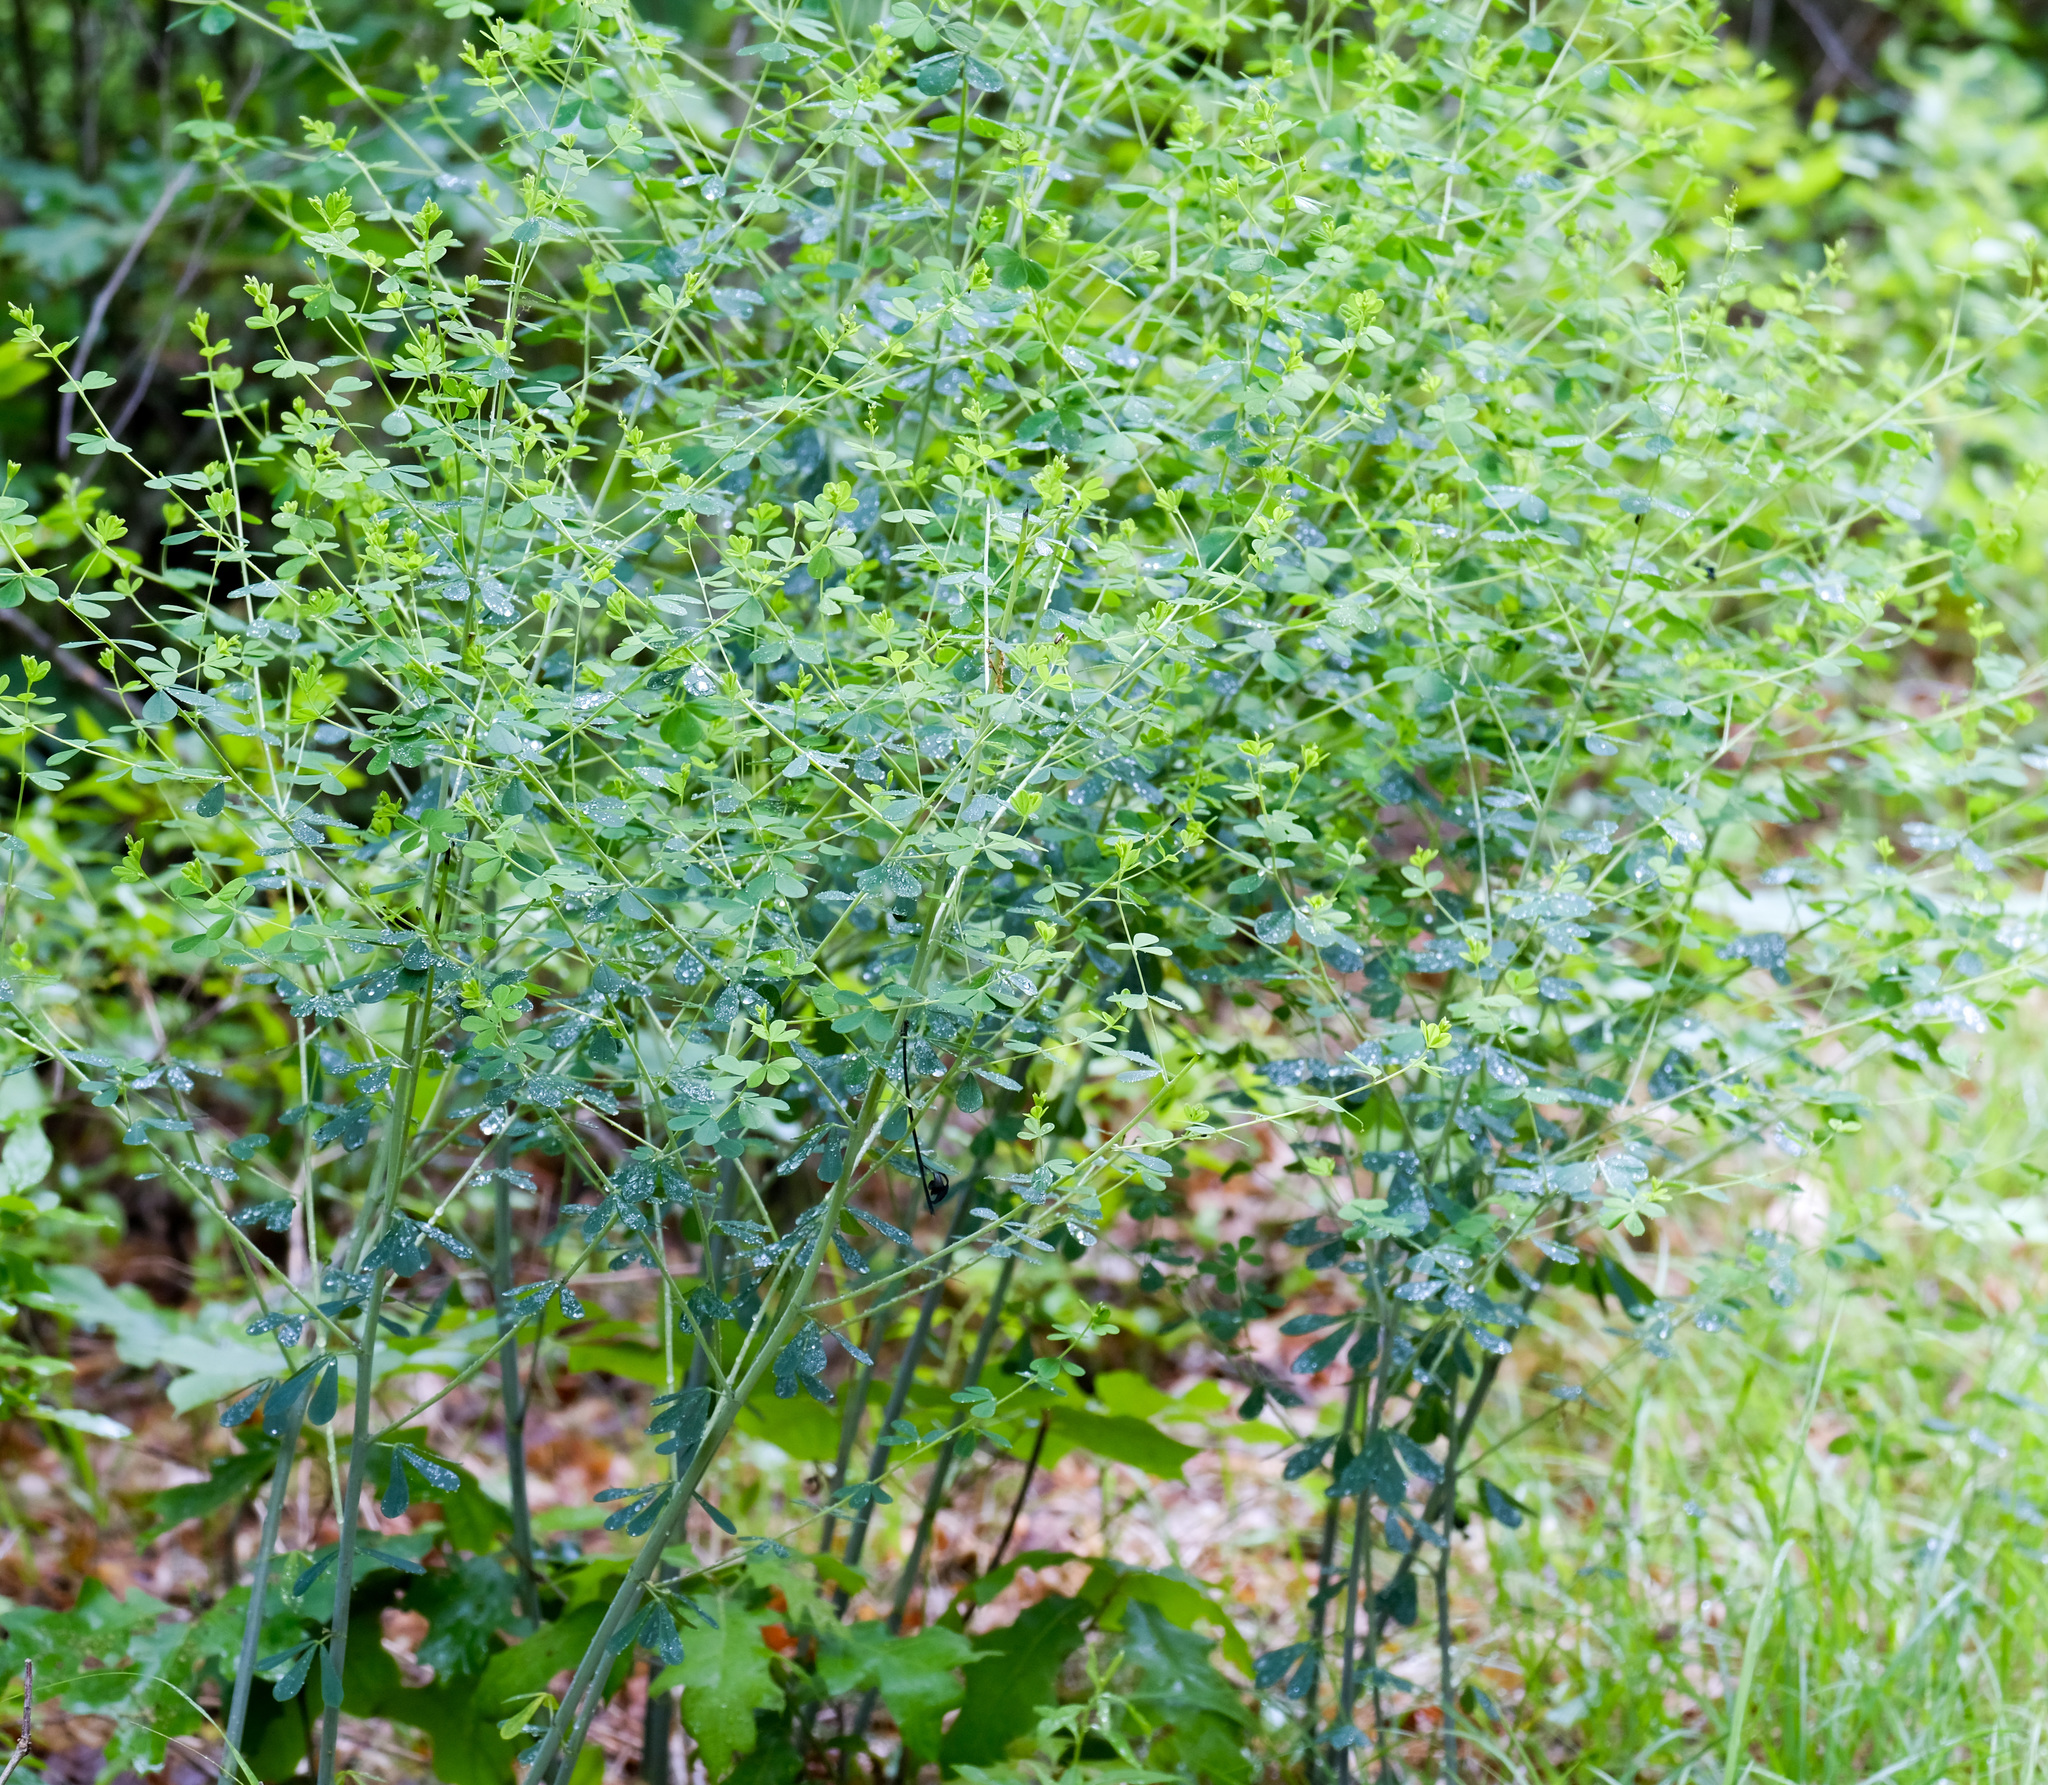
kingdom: Plantae
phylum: Tracheophyta
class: Magnoliopsida
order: Fabales
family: Fabaceae
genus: Baptisia
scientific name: Baptisia tinctoria
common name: Wild indigo
